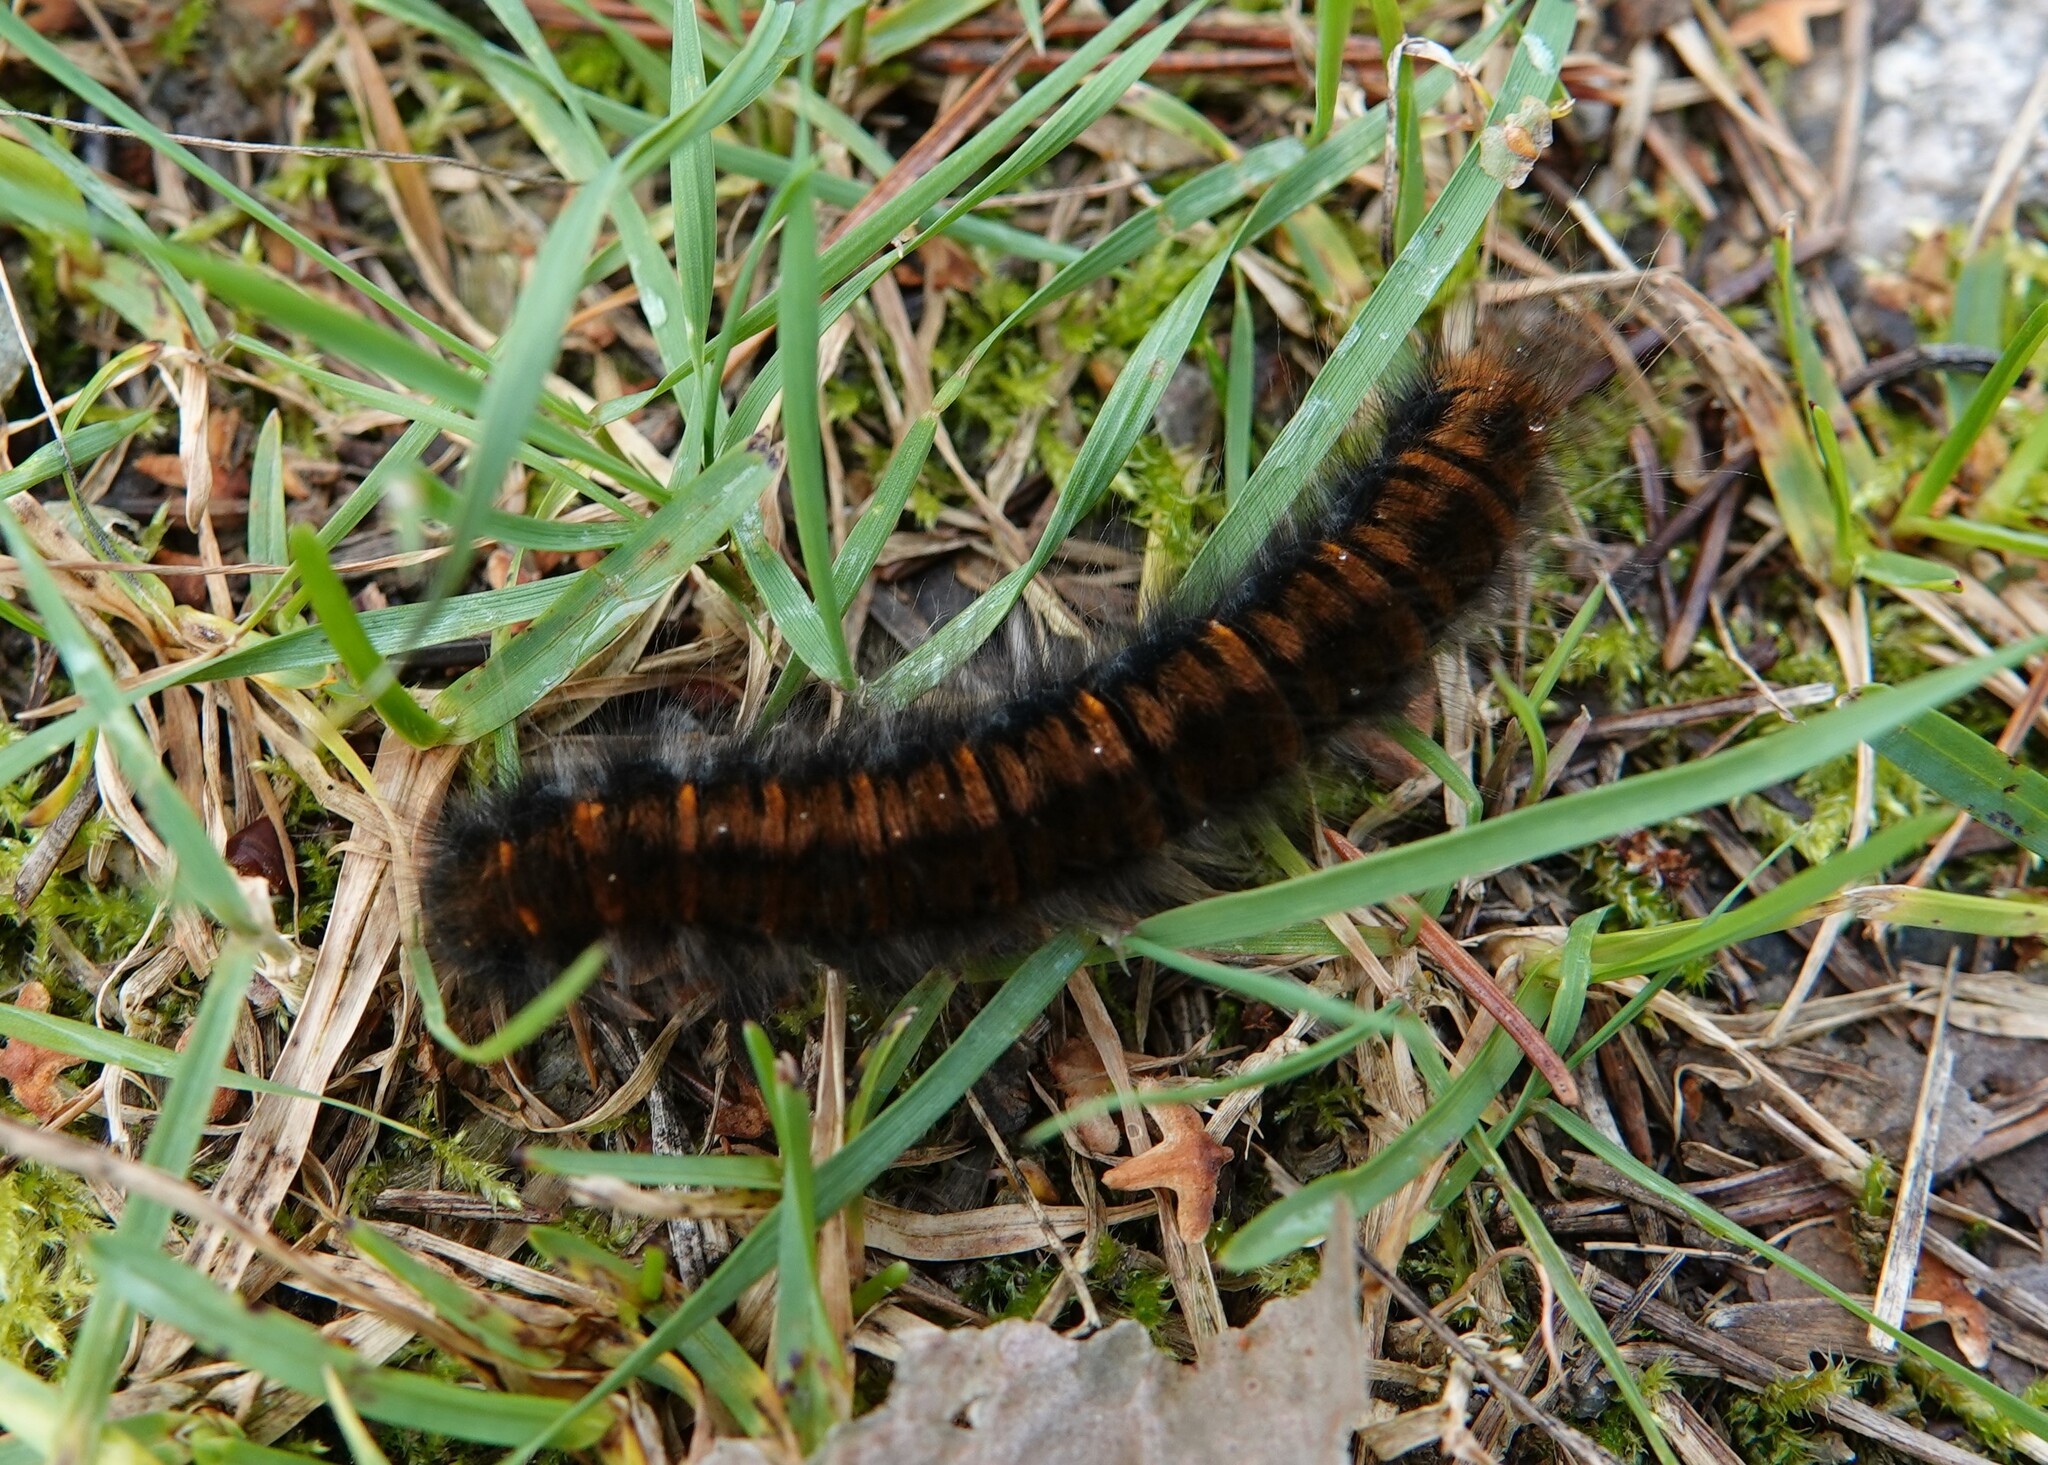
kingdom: Animalia
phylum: Arthropoda
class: Insecta
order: Lepidoptera
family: Lasiocampidae
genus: Macrothylacia
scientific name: Macrothylacia rubi
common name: Fox moth
